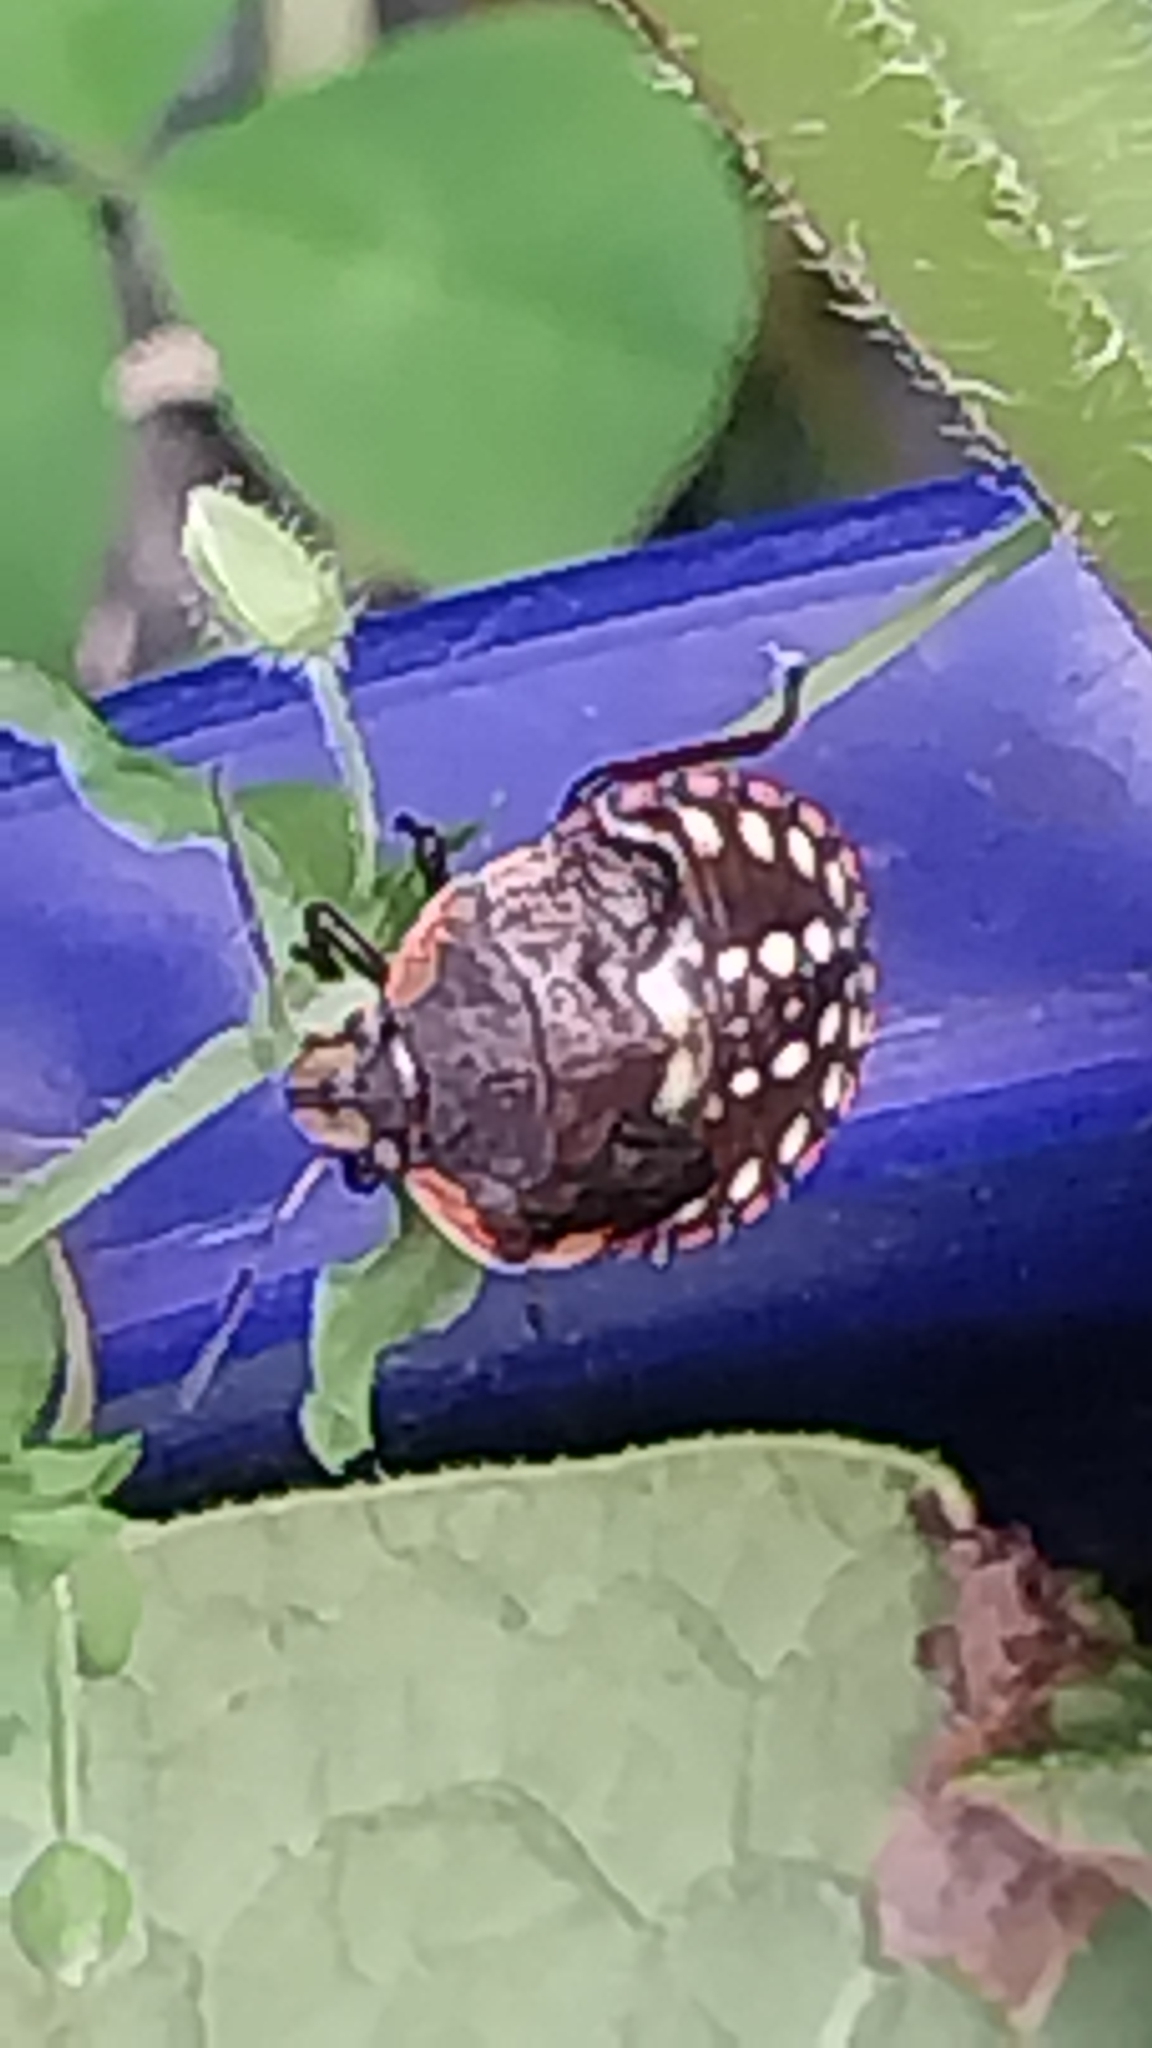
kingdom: Animalia
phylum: Arthropoda
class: Insecta
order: Hemiptera
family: Pentatomidae
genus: Nezara
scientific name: Nezara viridula
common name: Southern green stink bug
